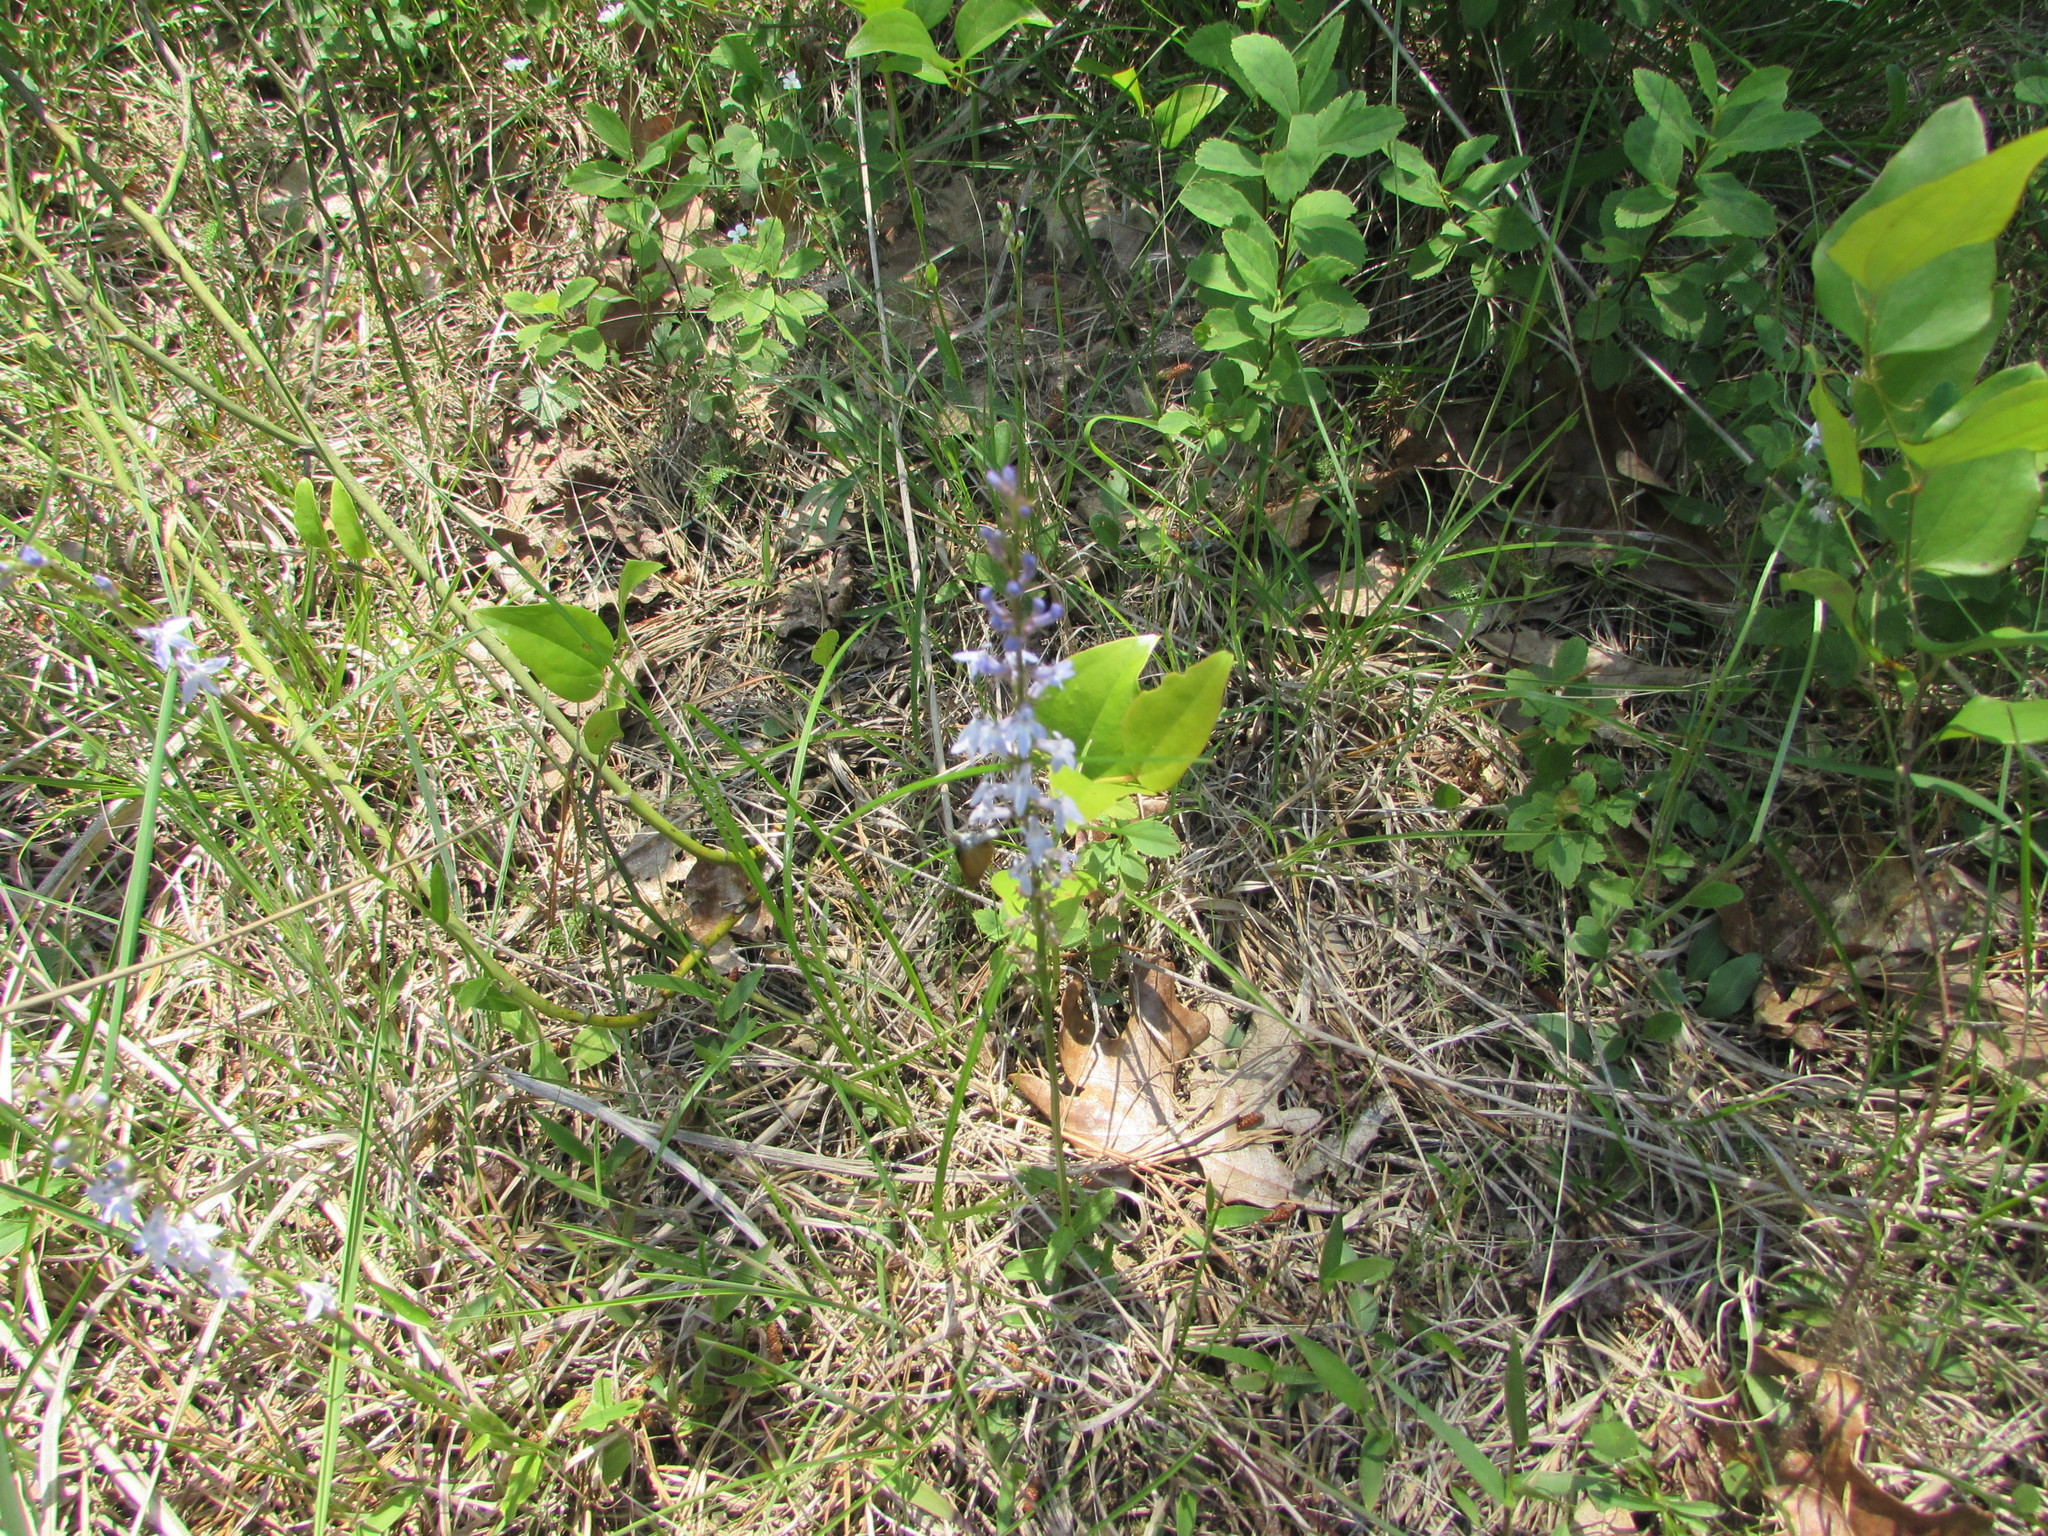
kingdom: Plantae
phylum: Tracheophyta
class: Magnoliopsida
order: Asterales
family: Campanulaceae
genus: Lobelia
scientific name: Lobelia spicata
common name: Pale-spike lobelia
